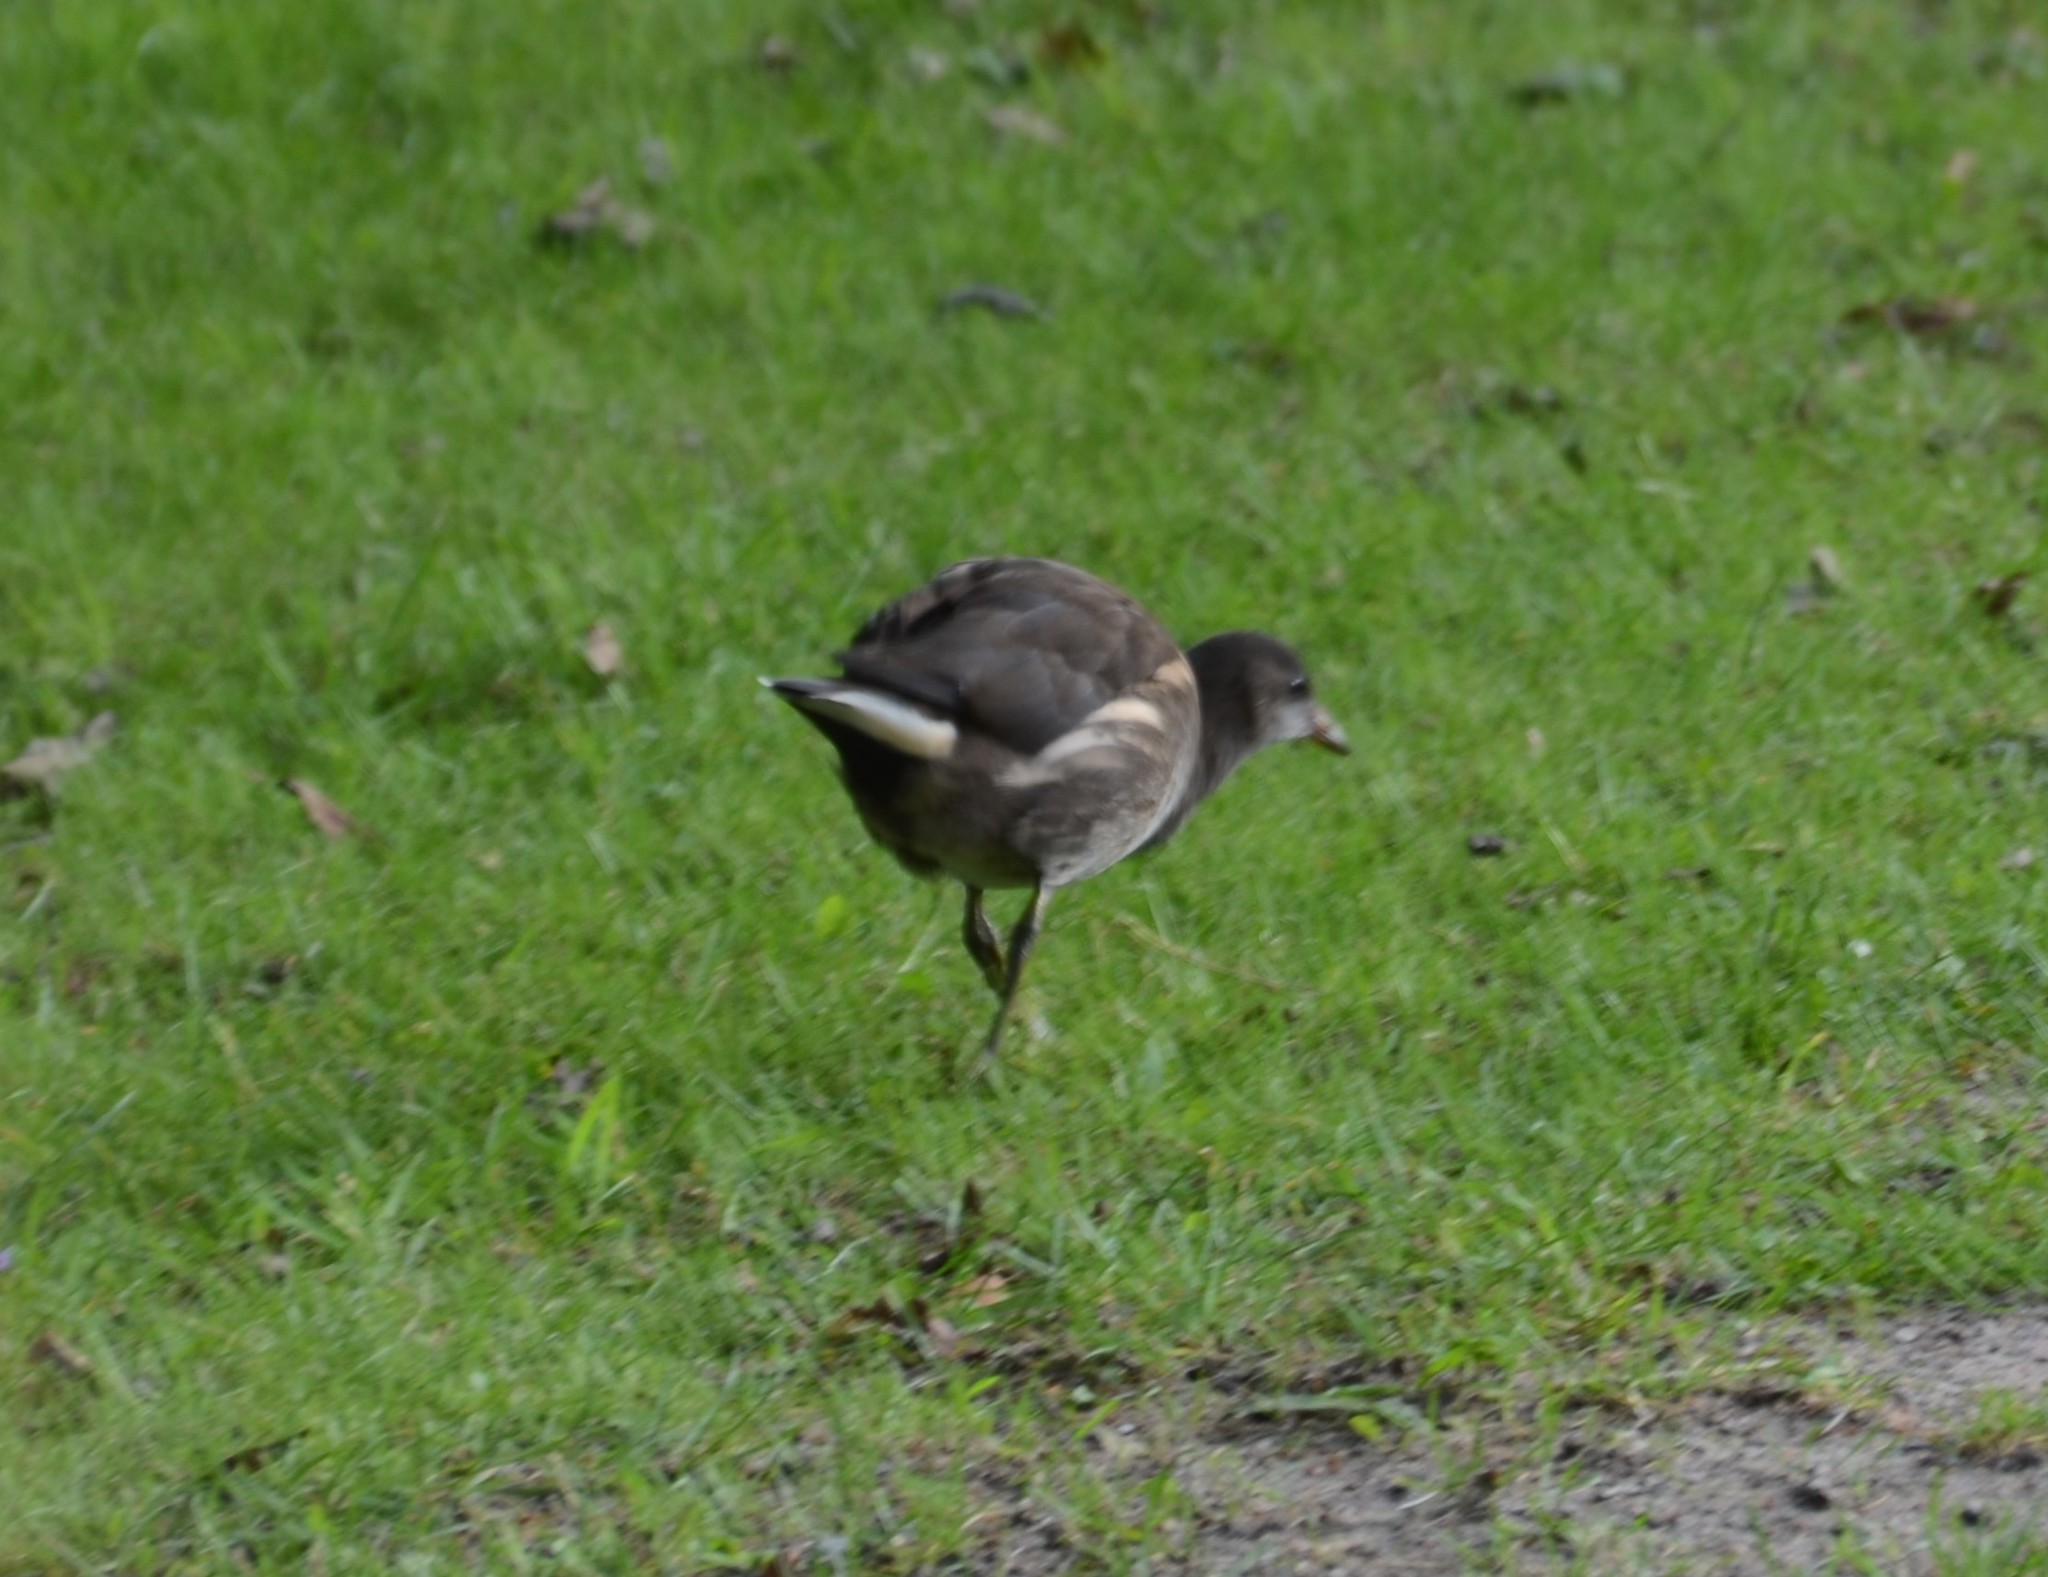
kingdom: Animalia
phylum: Chordata
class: Aves
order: Gruiformes
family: Rallidae
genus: Gallinula
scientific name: Gallinula chloropus
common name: Common moorhen
